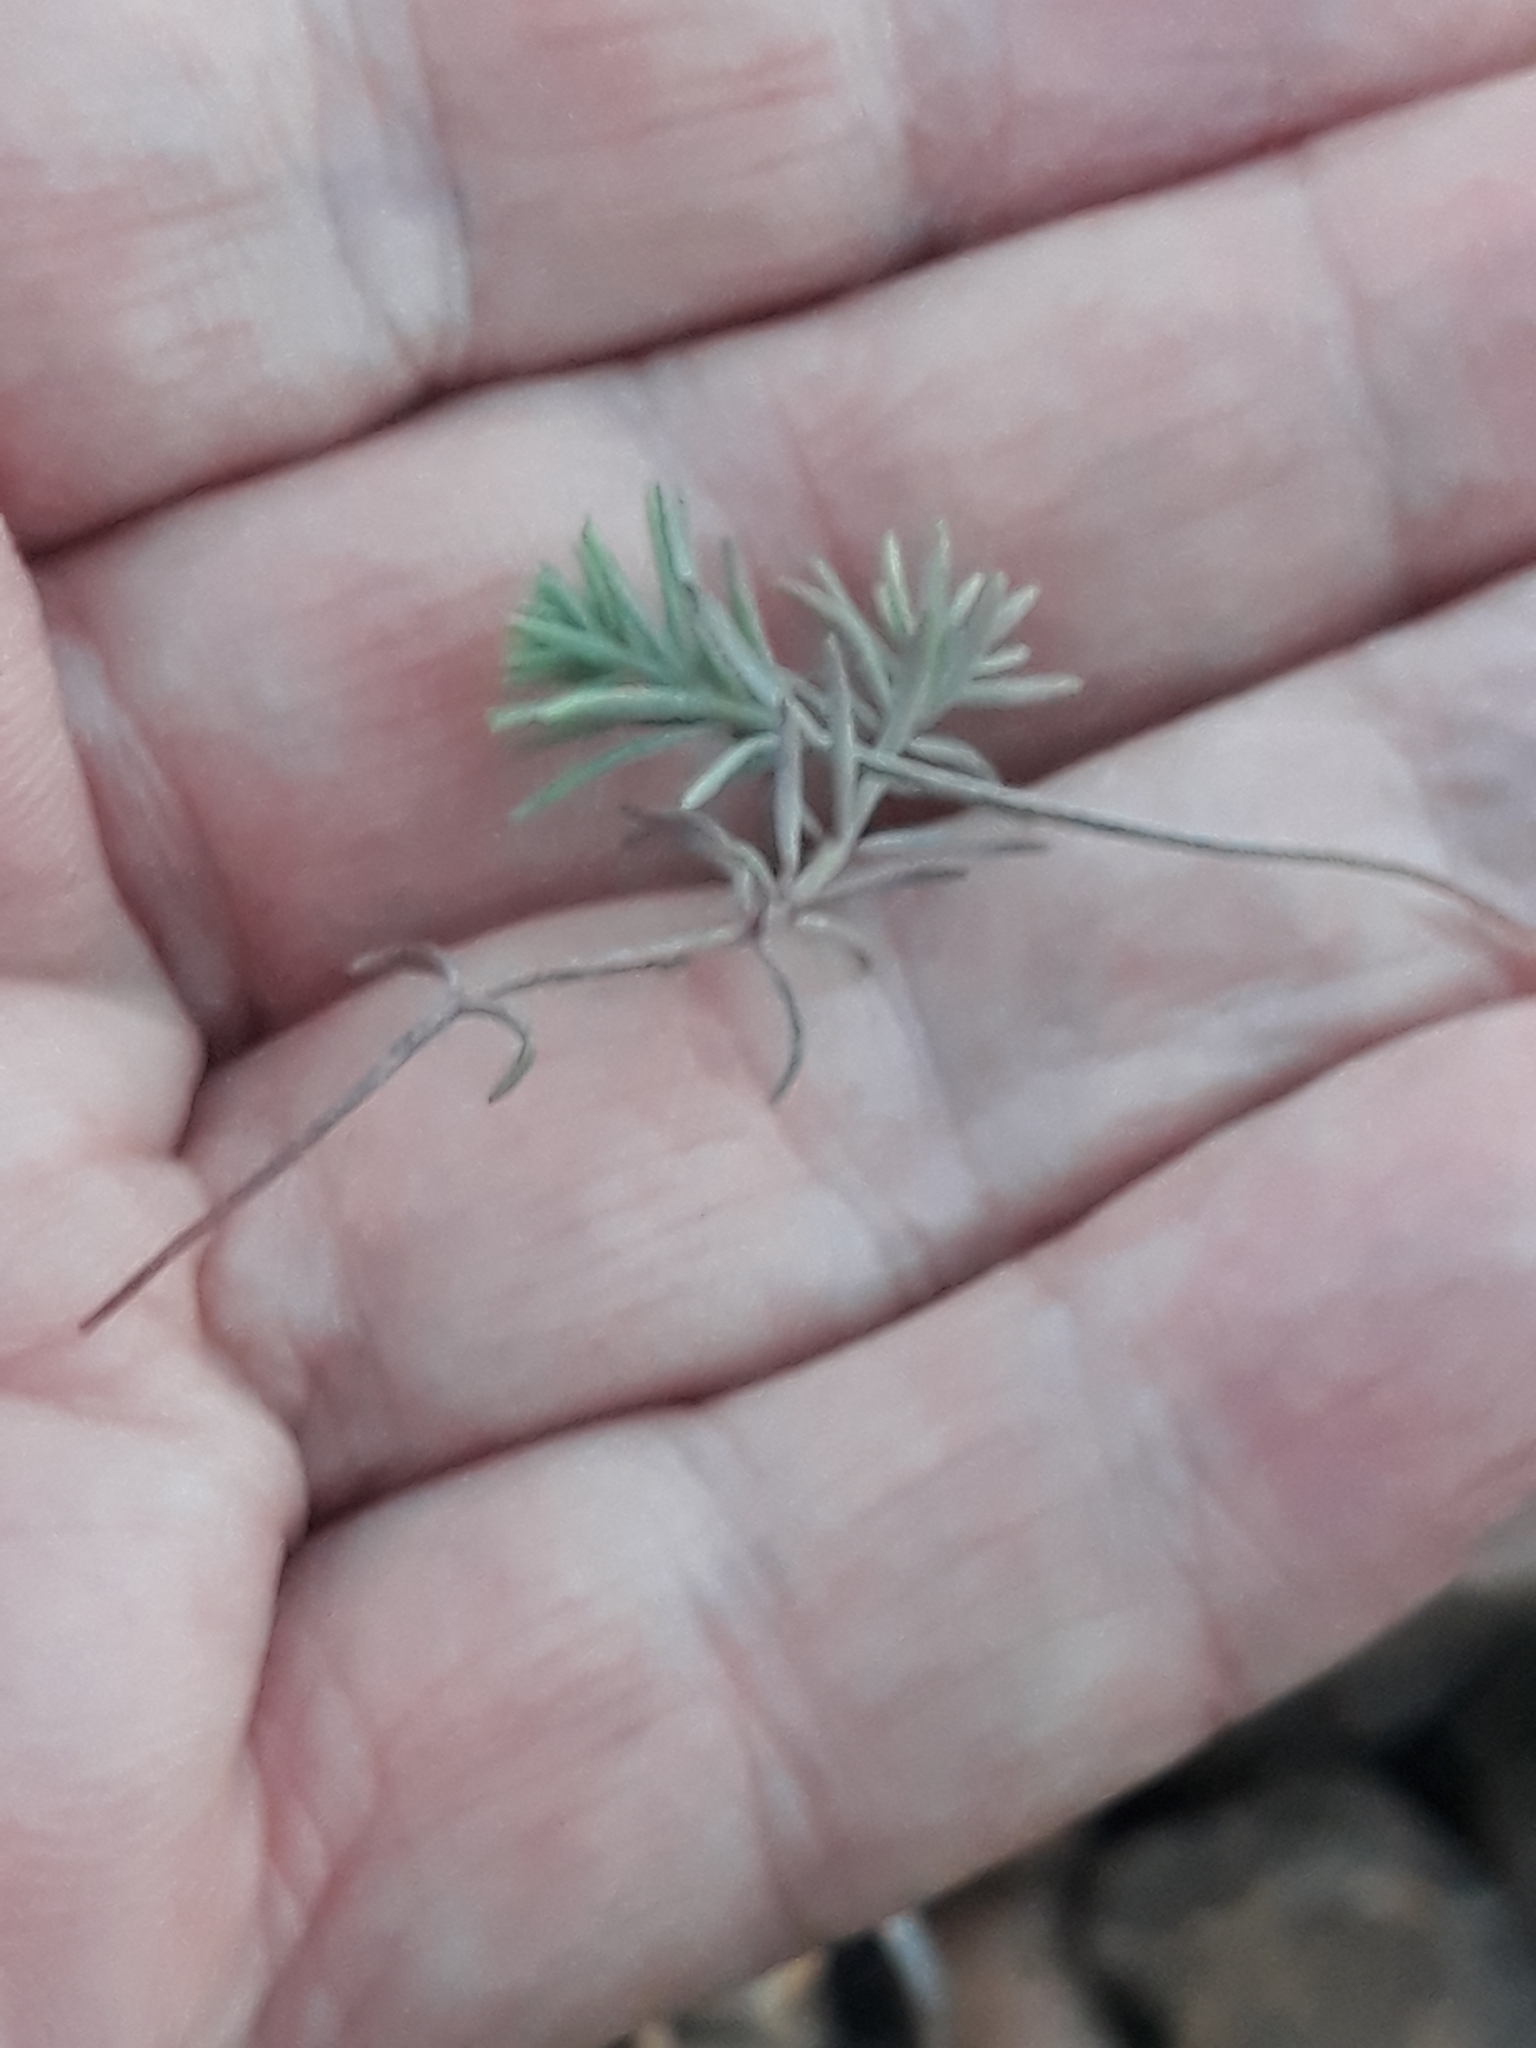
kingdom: Plantae
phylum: Tracheophyta
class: Magnoliopsida
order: Lamiales
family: Plantaginaceae
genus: Linaria
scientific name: Linaria simplex
